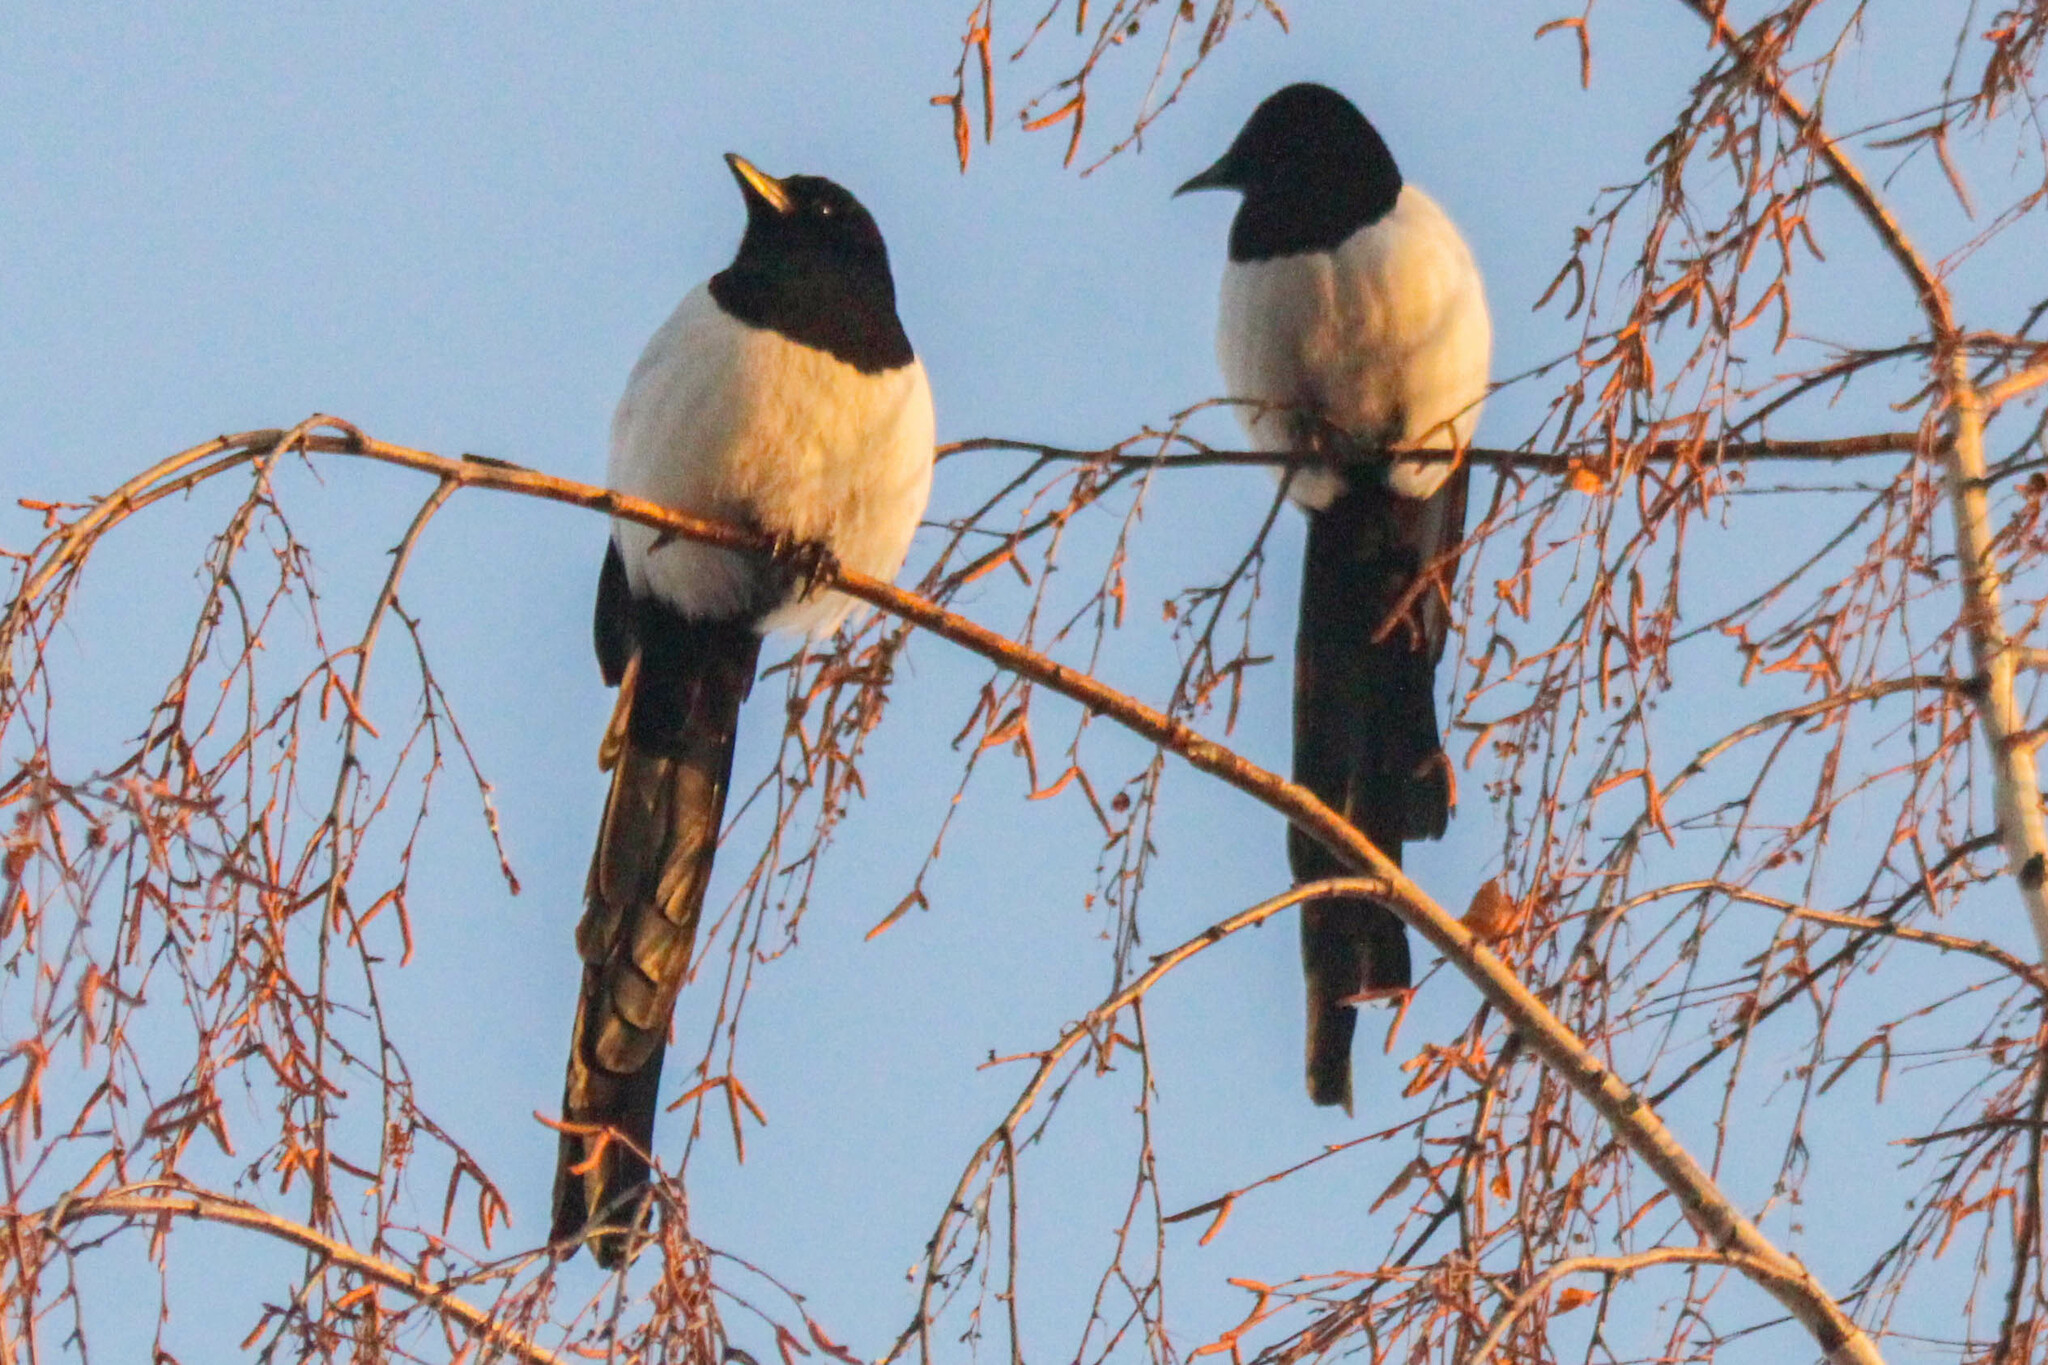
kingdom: Animalia
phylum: Chordata
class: Aves
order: Passeriformes
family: Corvidae
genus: Pica
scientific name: Pica pica
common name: Eurasian magpie
